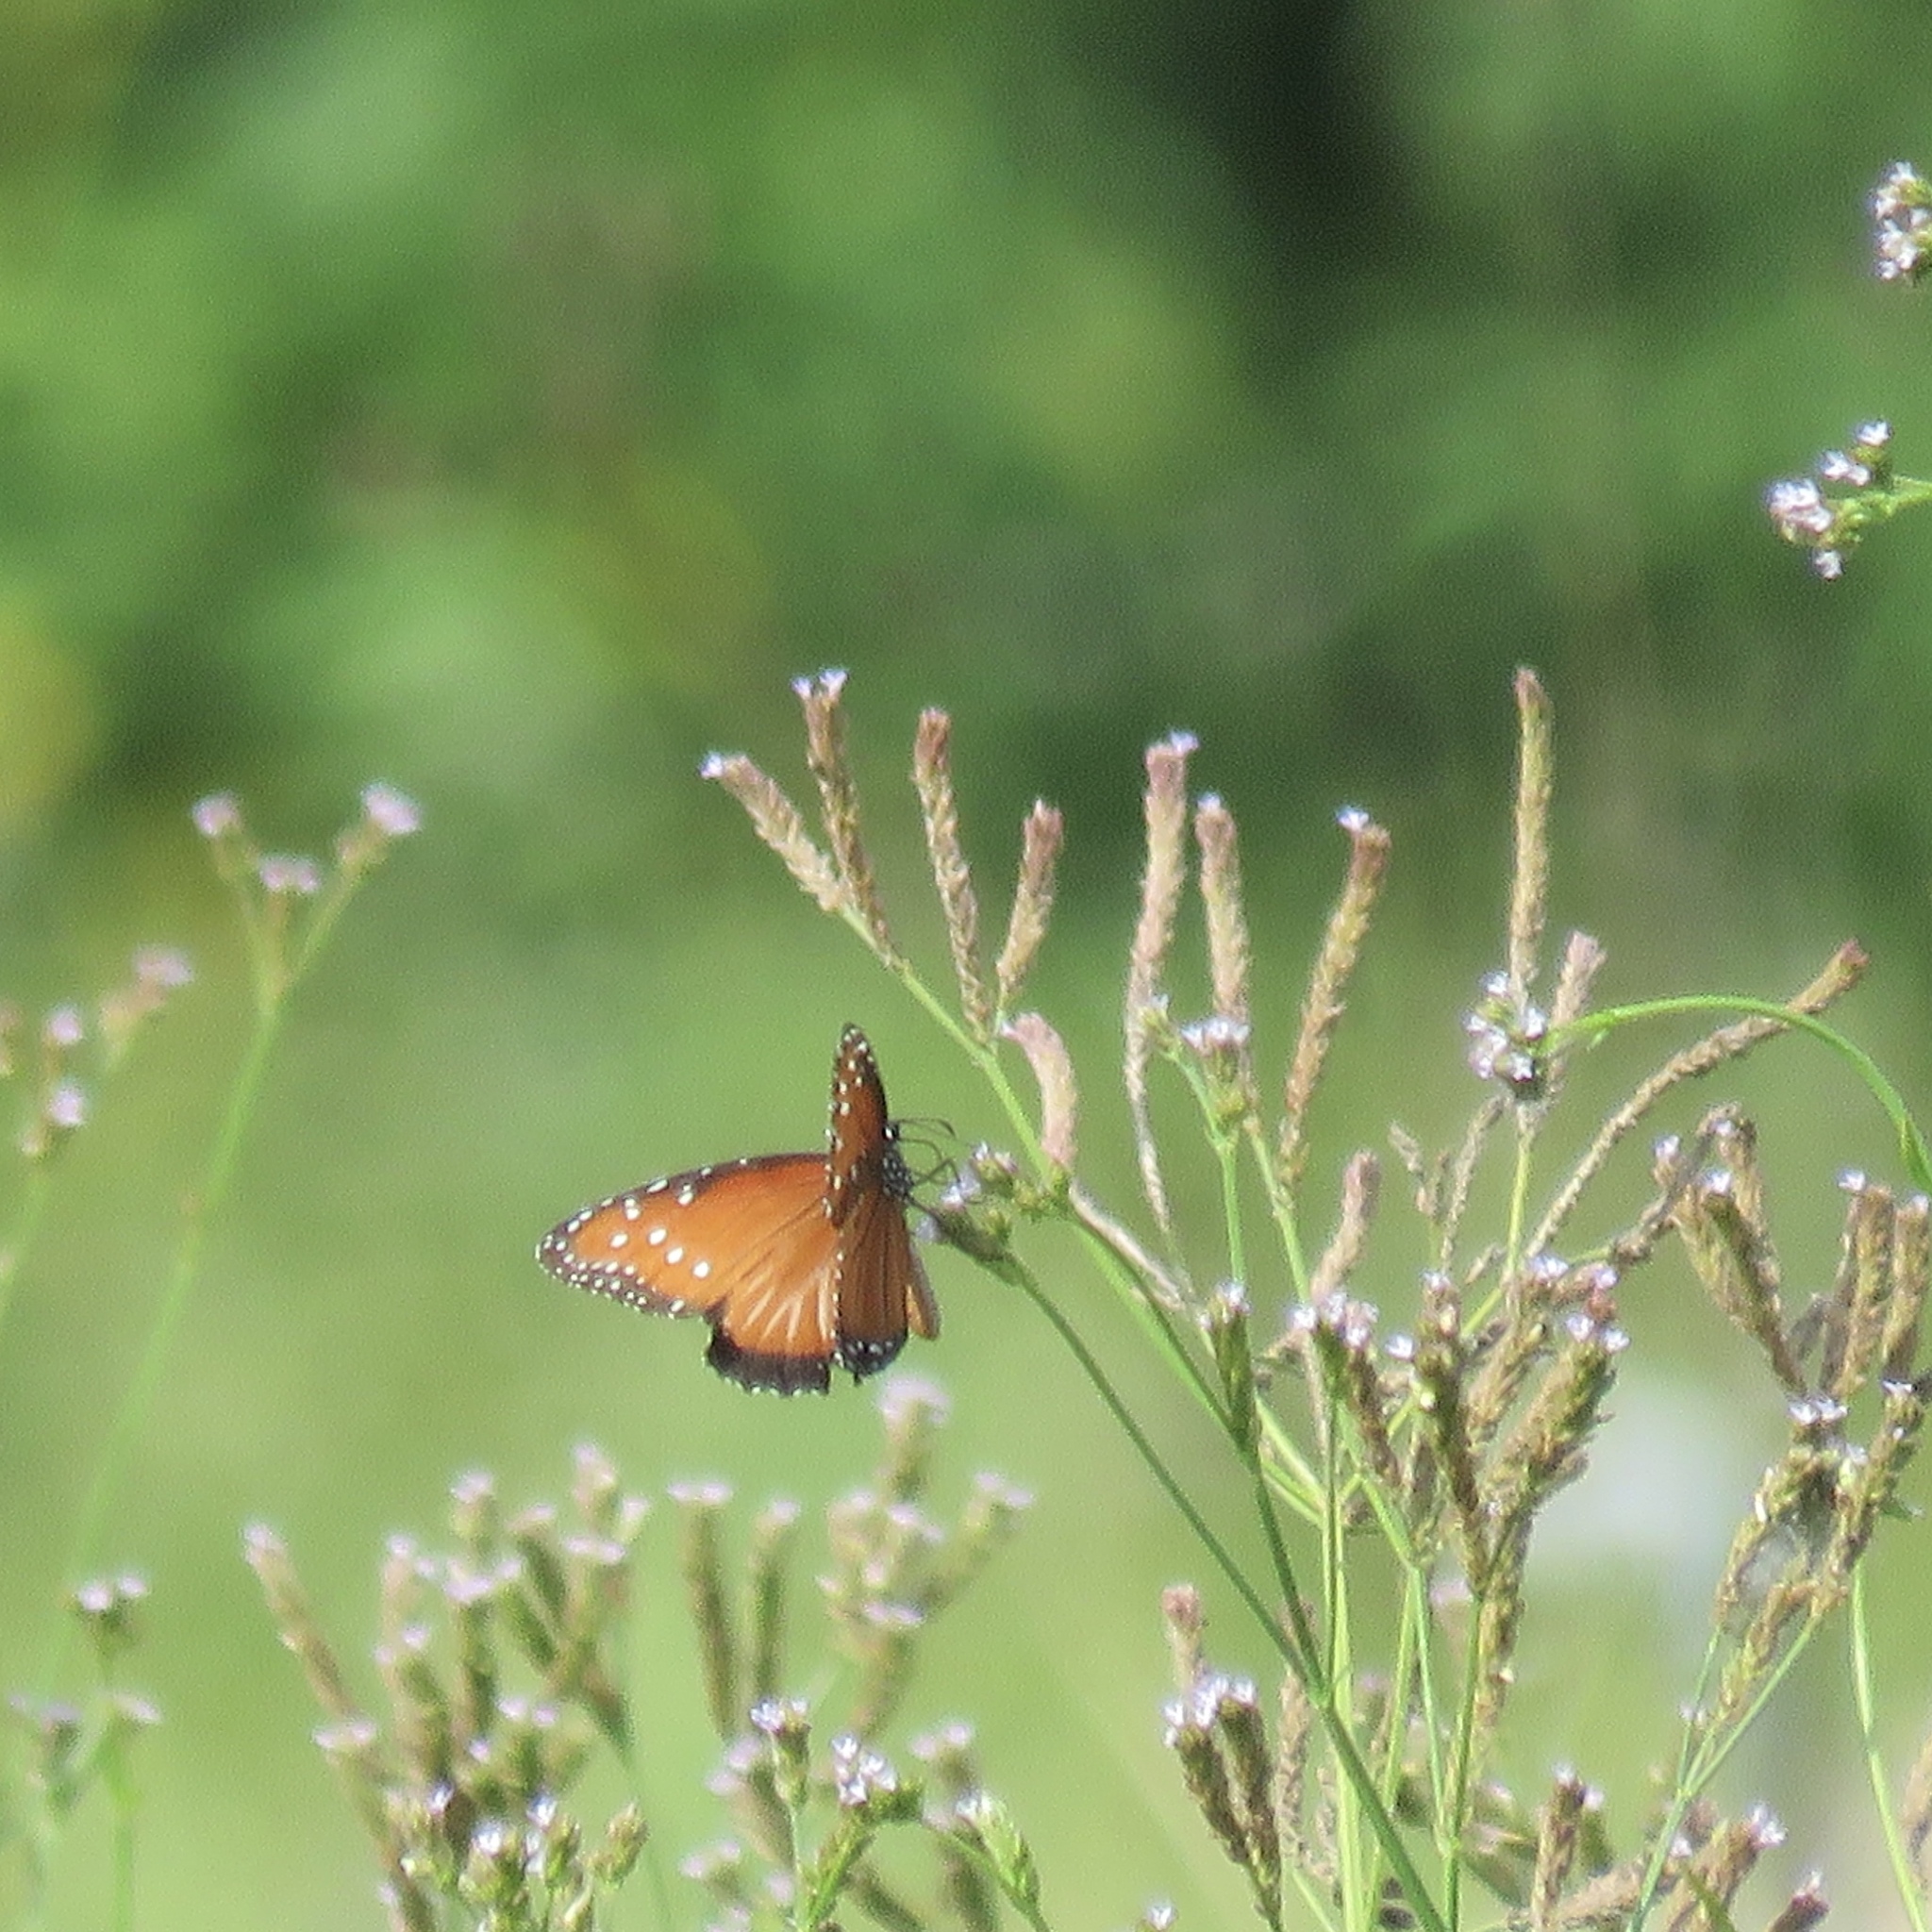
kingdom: Animalia
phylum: Arthropoda
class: Insecta
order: Lepidoptera
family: Nymphalidae
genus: Danaus
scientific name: Danaus gilippus
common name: Queen
